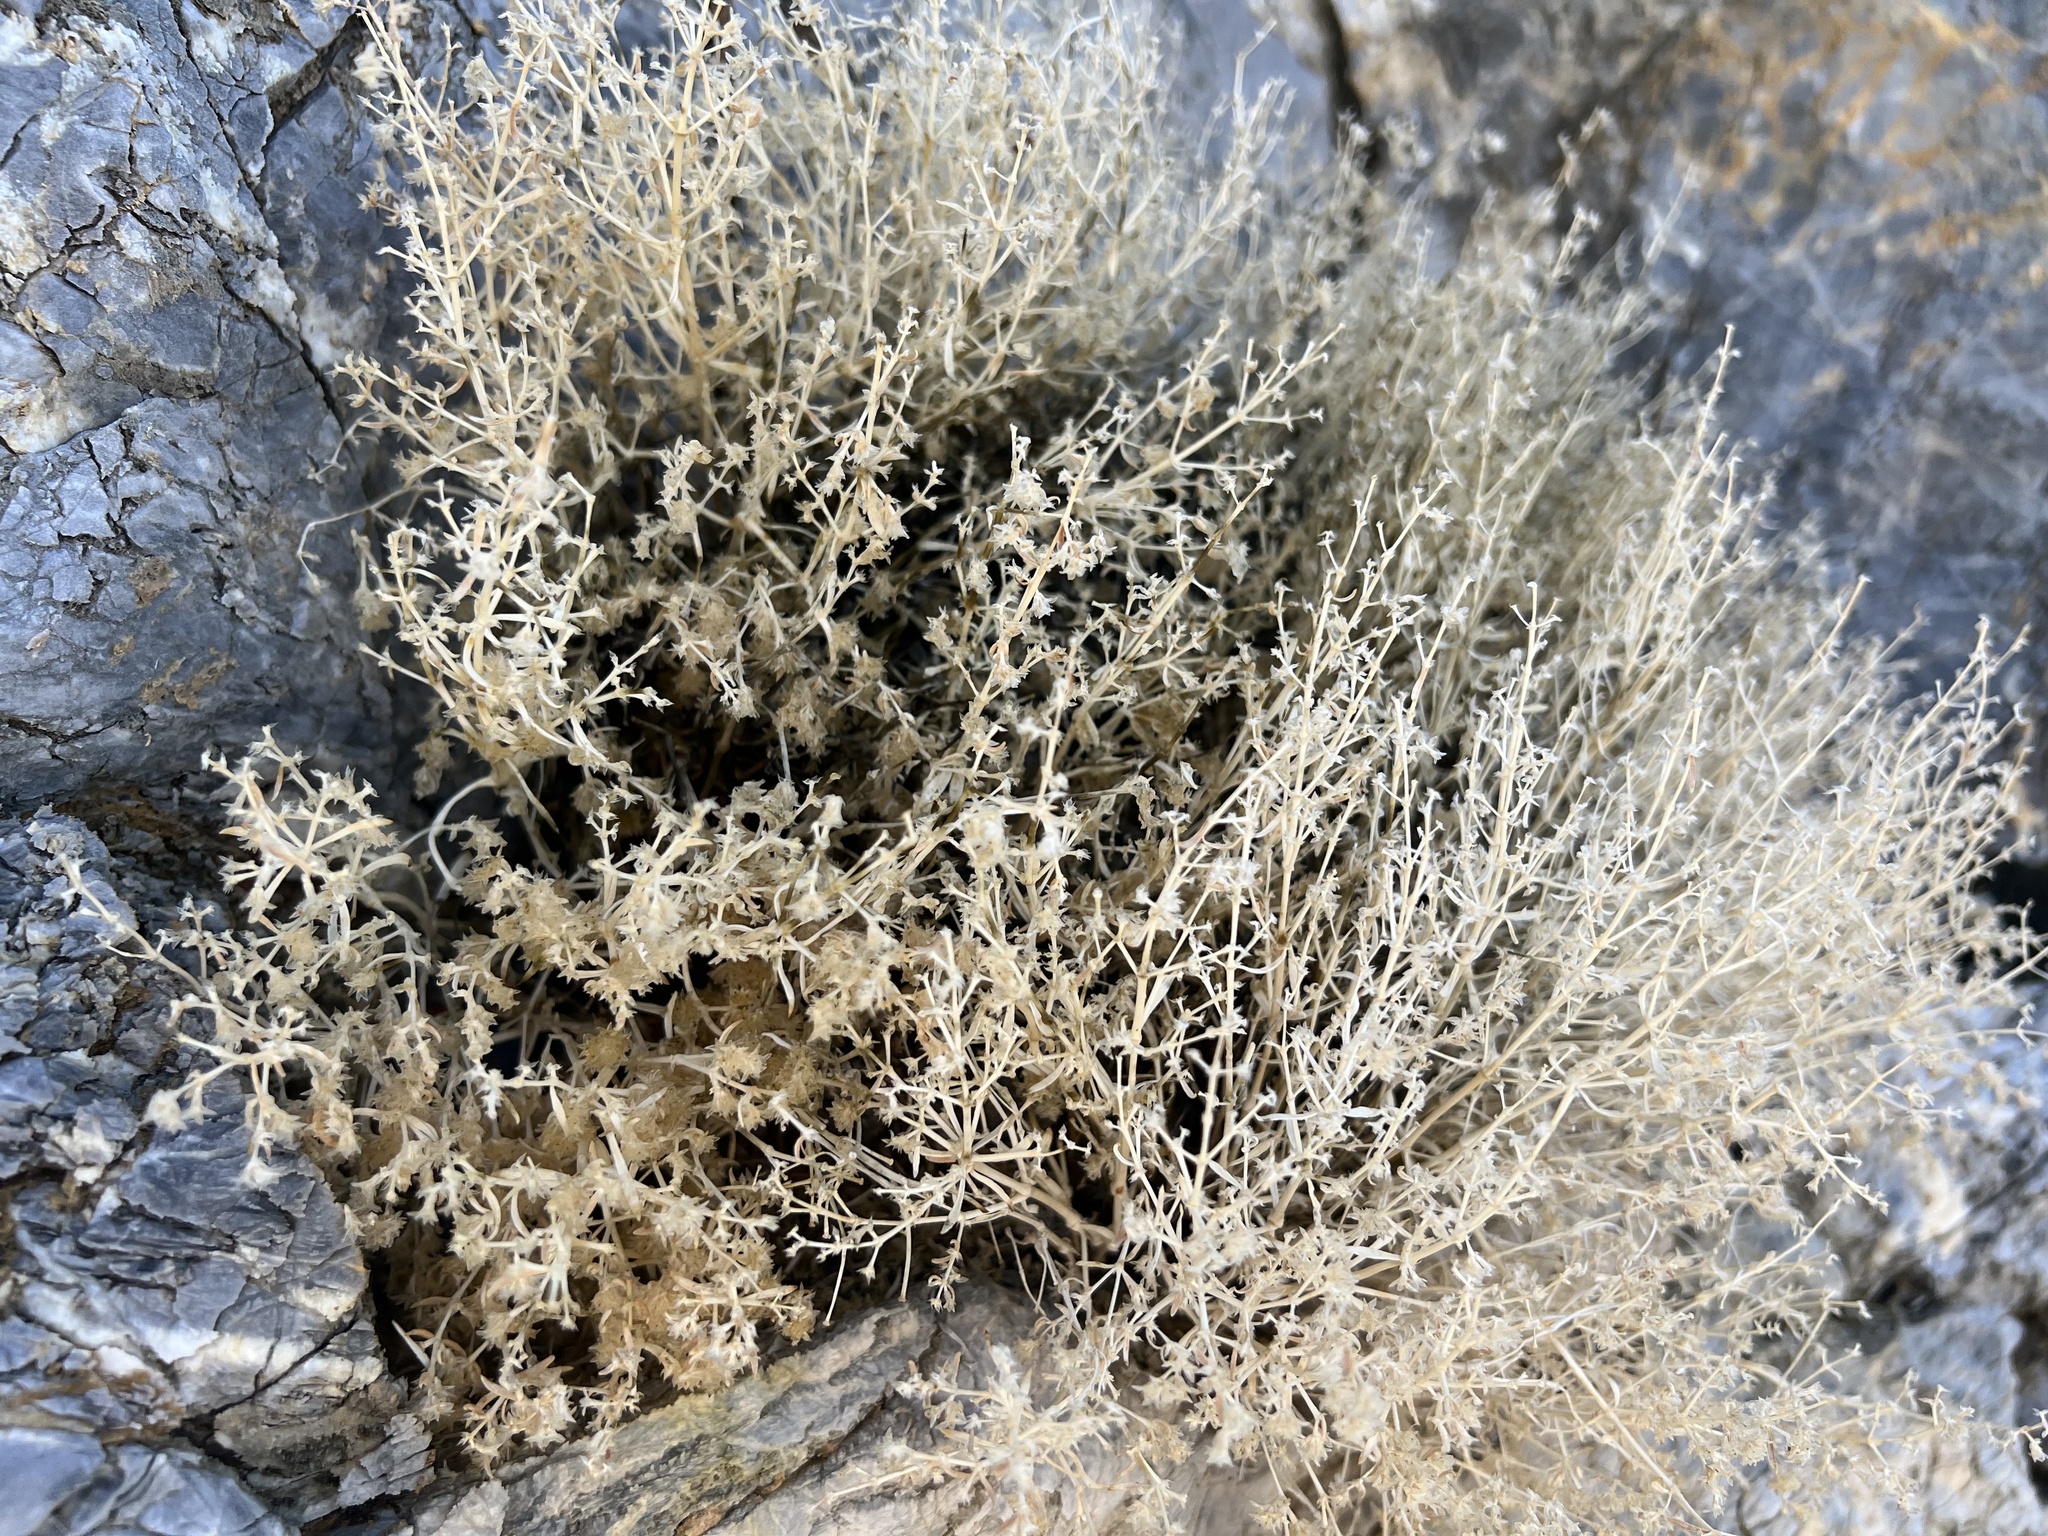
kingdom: Plantae
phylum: Tracheophyta
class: Magnoliopsida
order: Caryophyllales
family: Caryophyllaceae
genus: Scopulophila
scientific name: Scopulophila rixfordii
